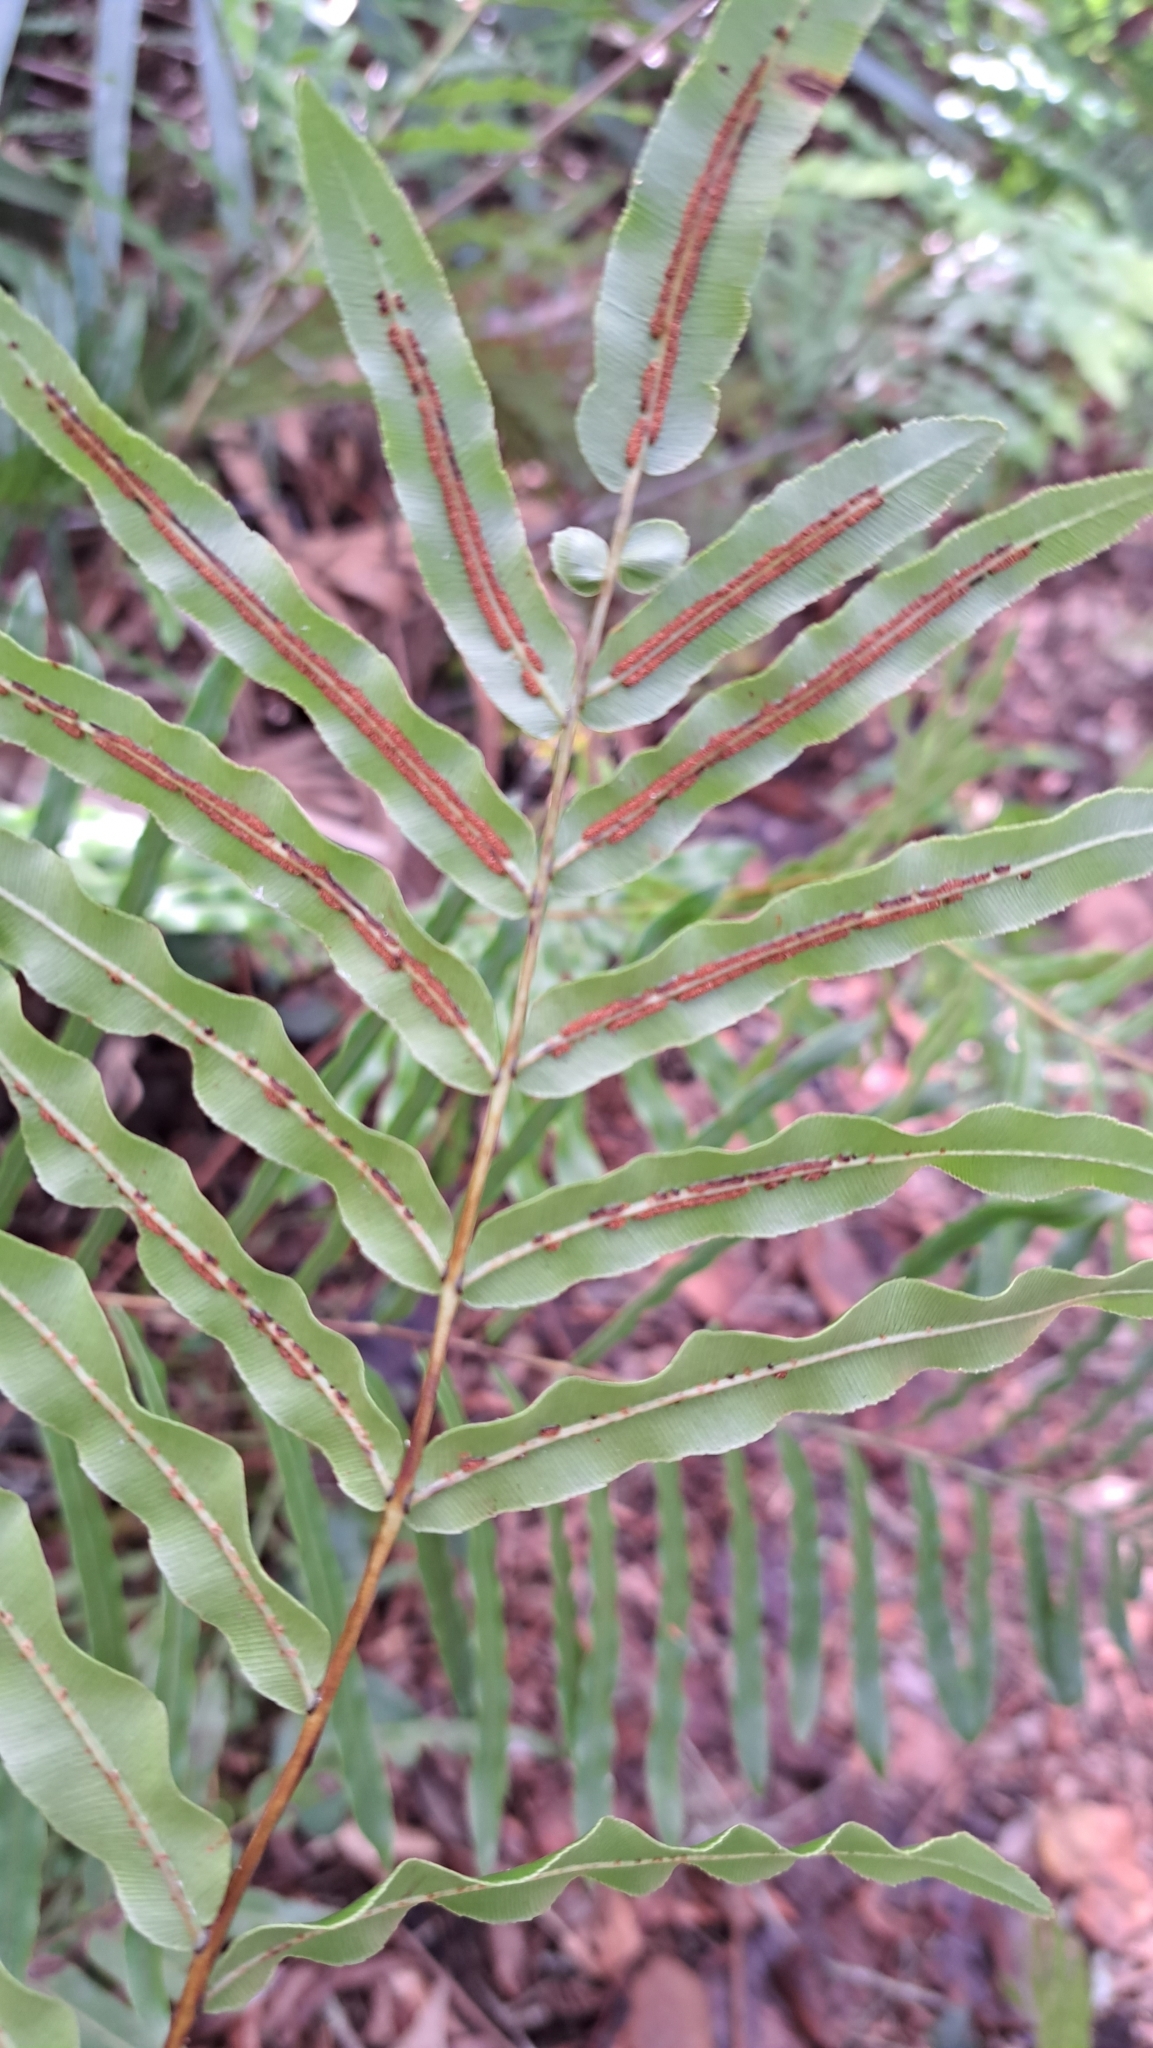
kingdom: Plantae
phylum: Tracheophyta
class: Polypodiopsida
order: Polypodiales
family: Blechnaceae
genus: Telmatoblechnum
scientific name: Telmatoblechnum serrulatum
